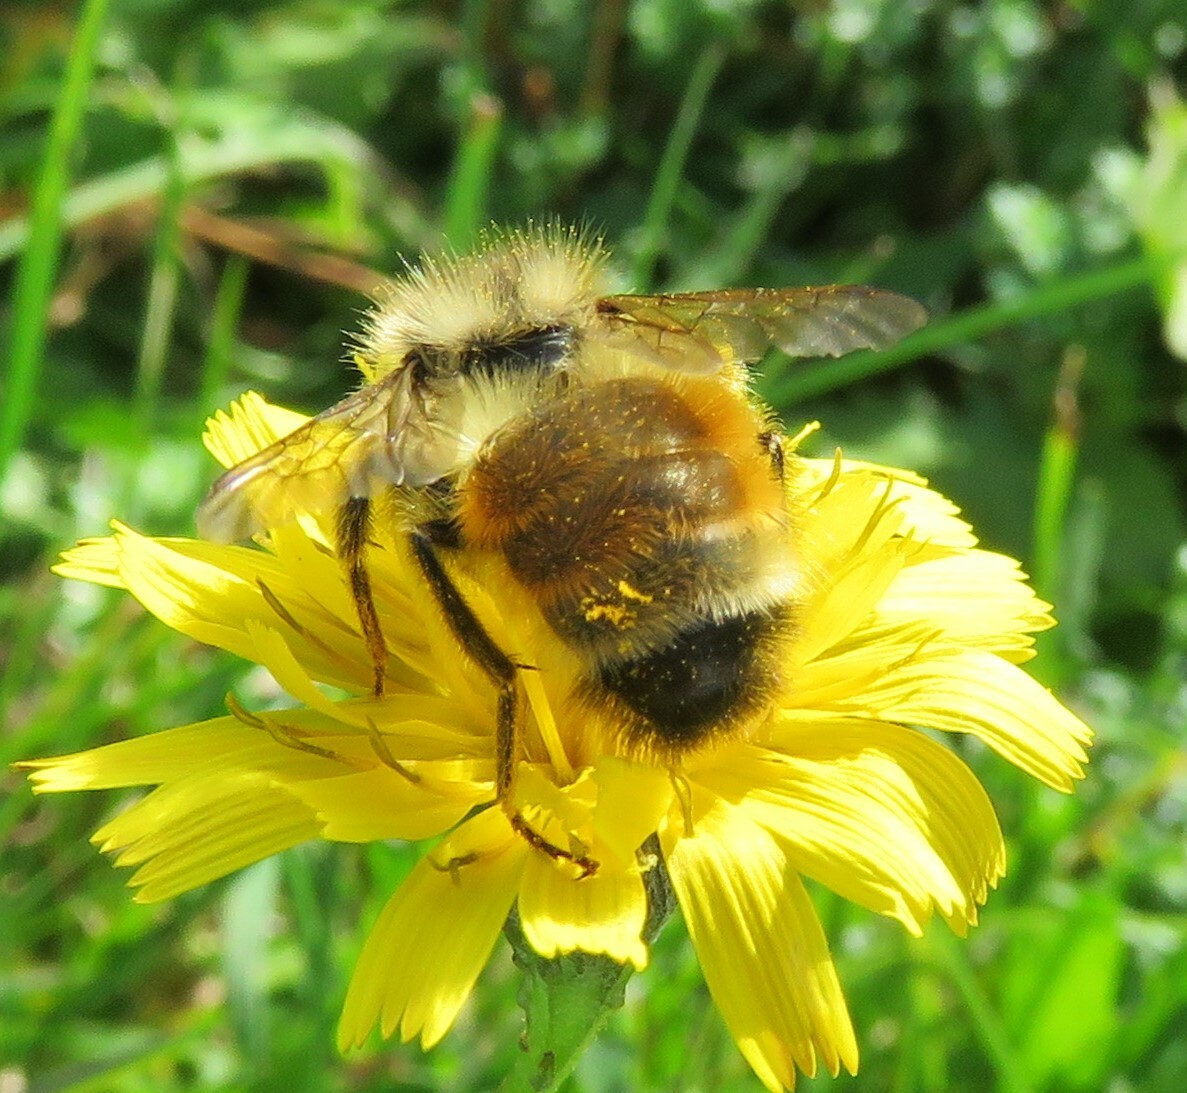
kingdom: Animalia
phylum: Arthropoda
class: Insecta
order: Hymenoptera
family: Apidae
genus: Bombus
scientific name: Bombus ternarius
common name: Tri-colored bumble bee
